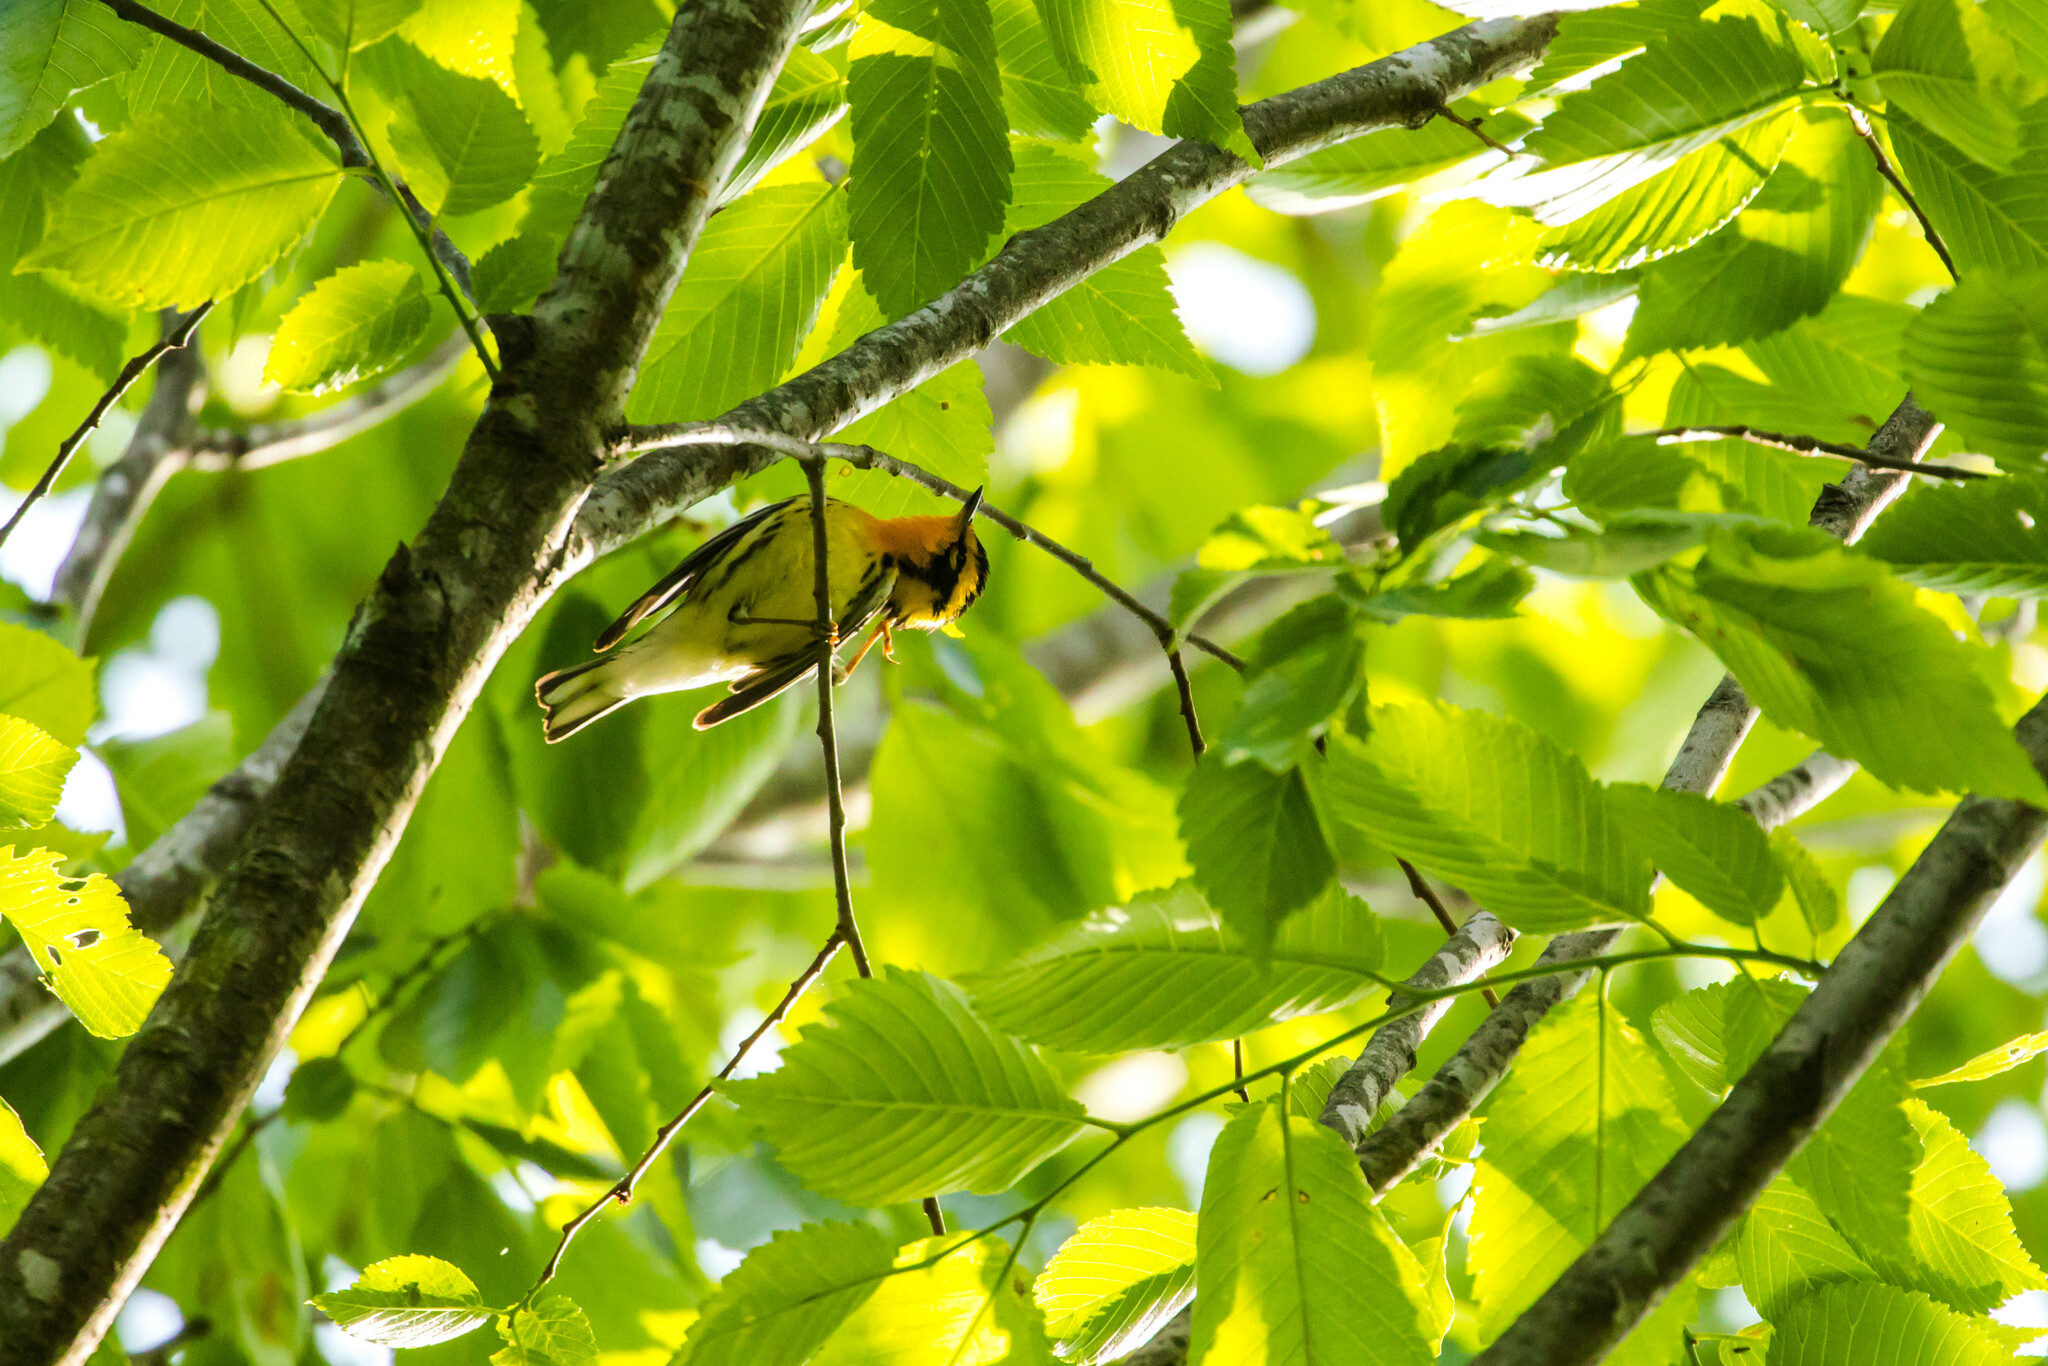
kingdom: Animalia
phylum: Chordata
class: Aves
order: Passeriformes
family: Parulidae
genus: Setophaga
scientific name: Setophaga fusca
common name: Blackburnian warbler
